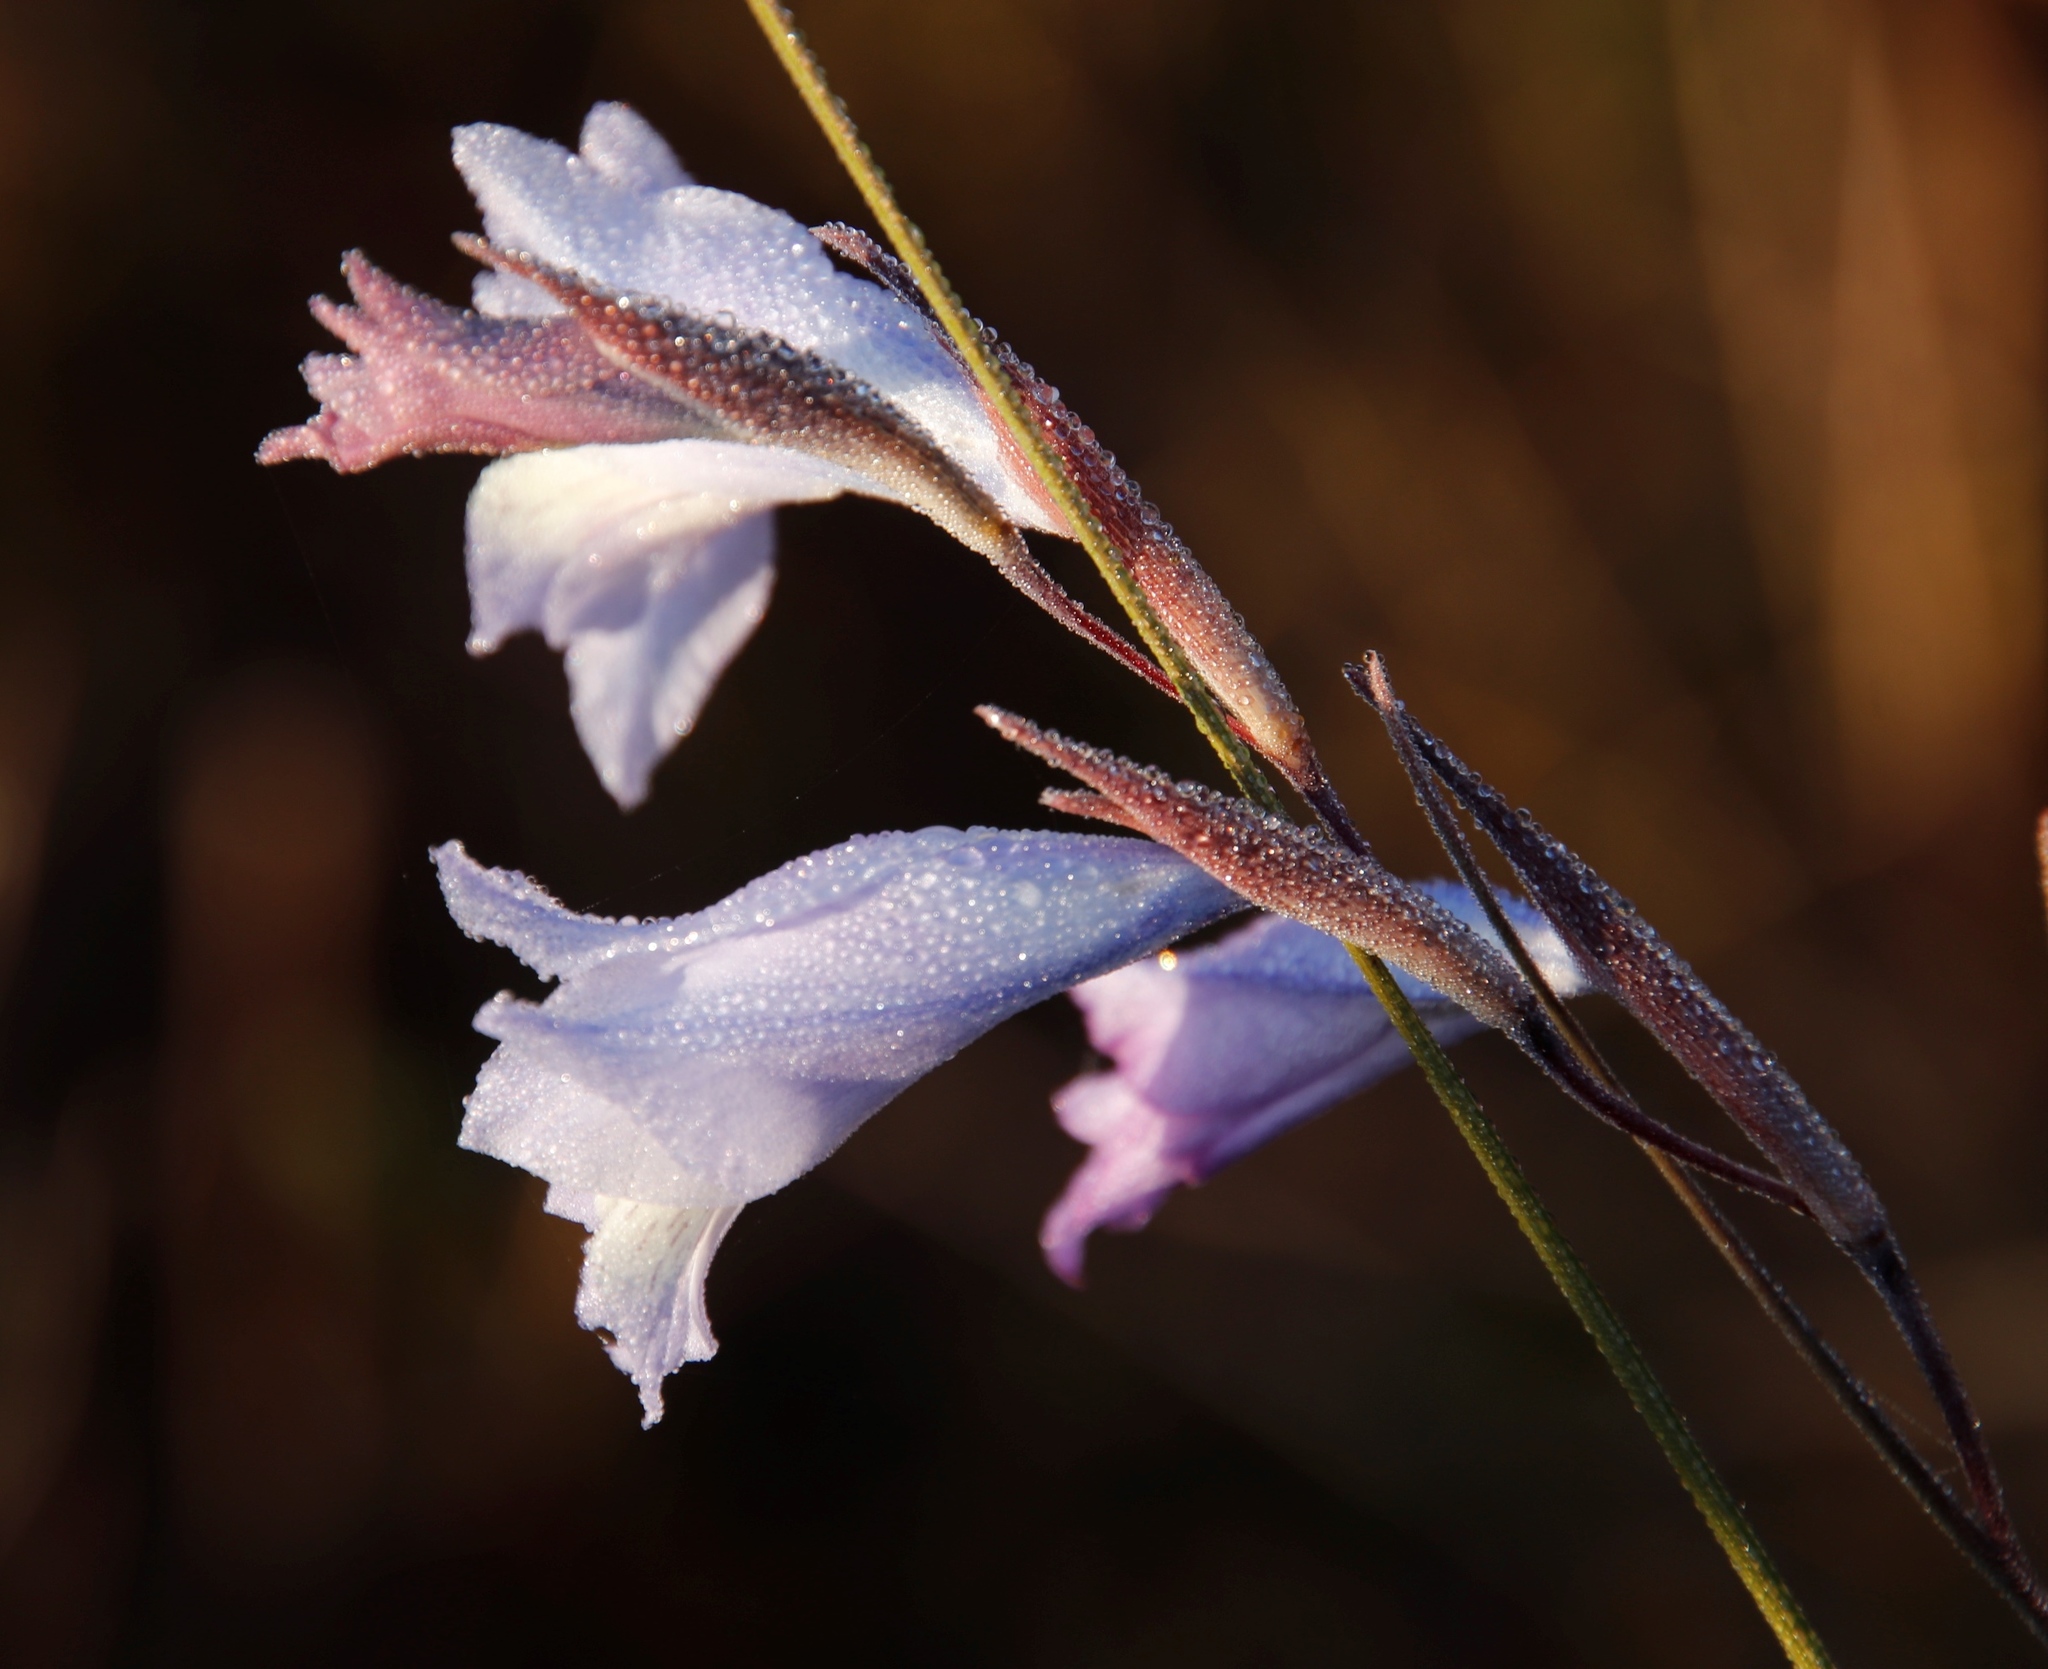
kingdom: Plantae
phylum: Tracheophyta
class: Liliopsida
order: Asparagales
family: Iridaceae
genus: Gladiolus
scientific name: Gladiolus gracilis
